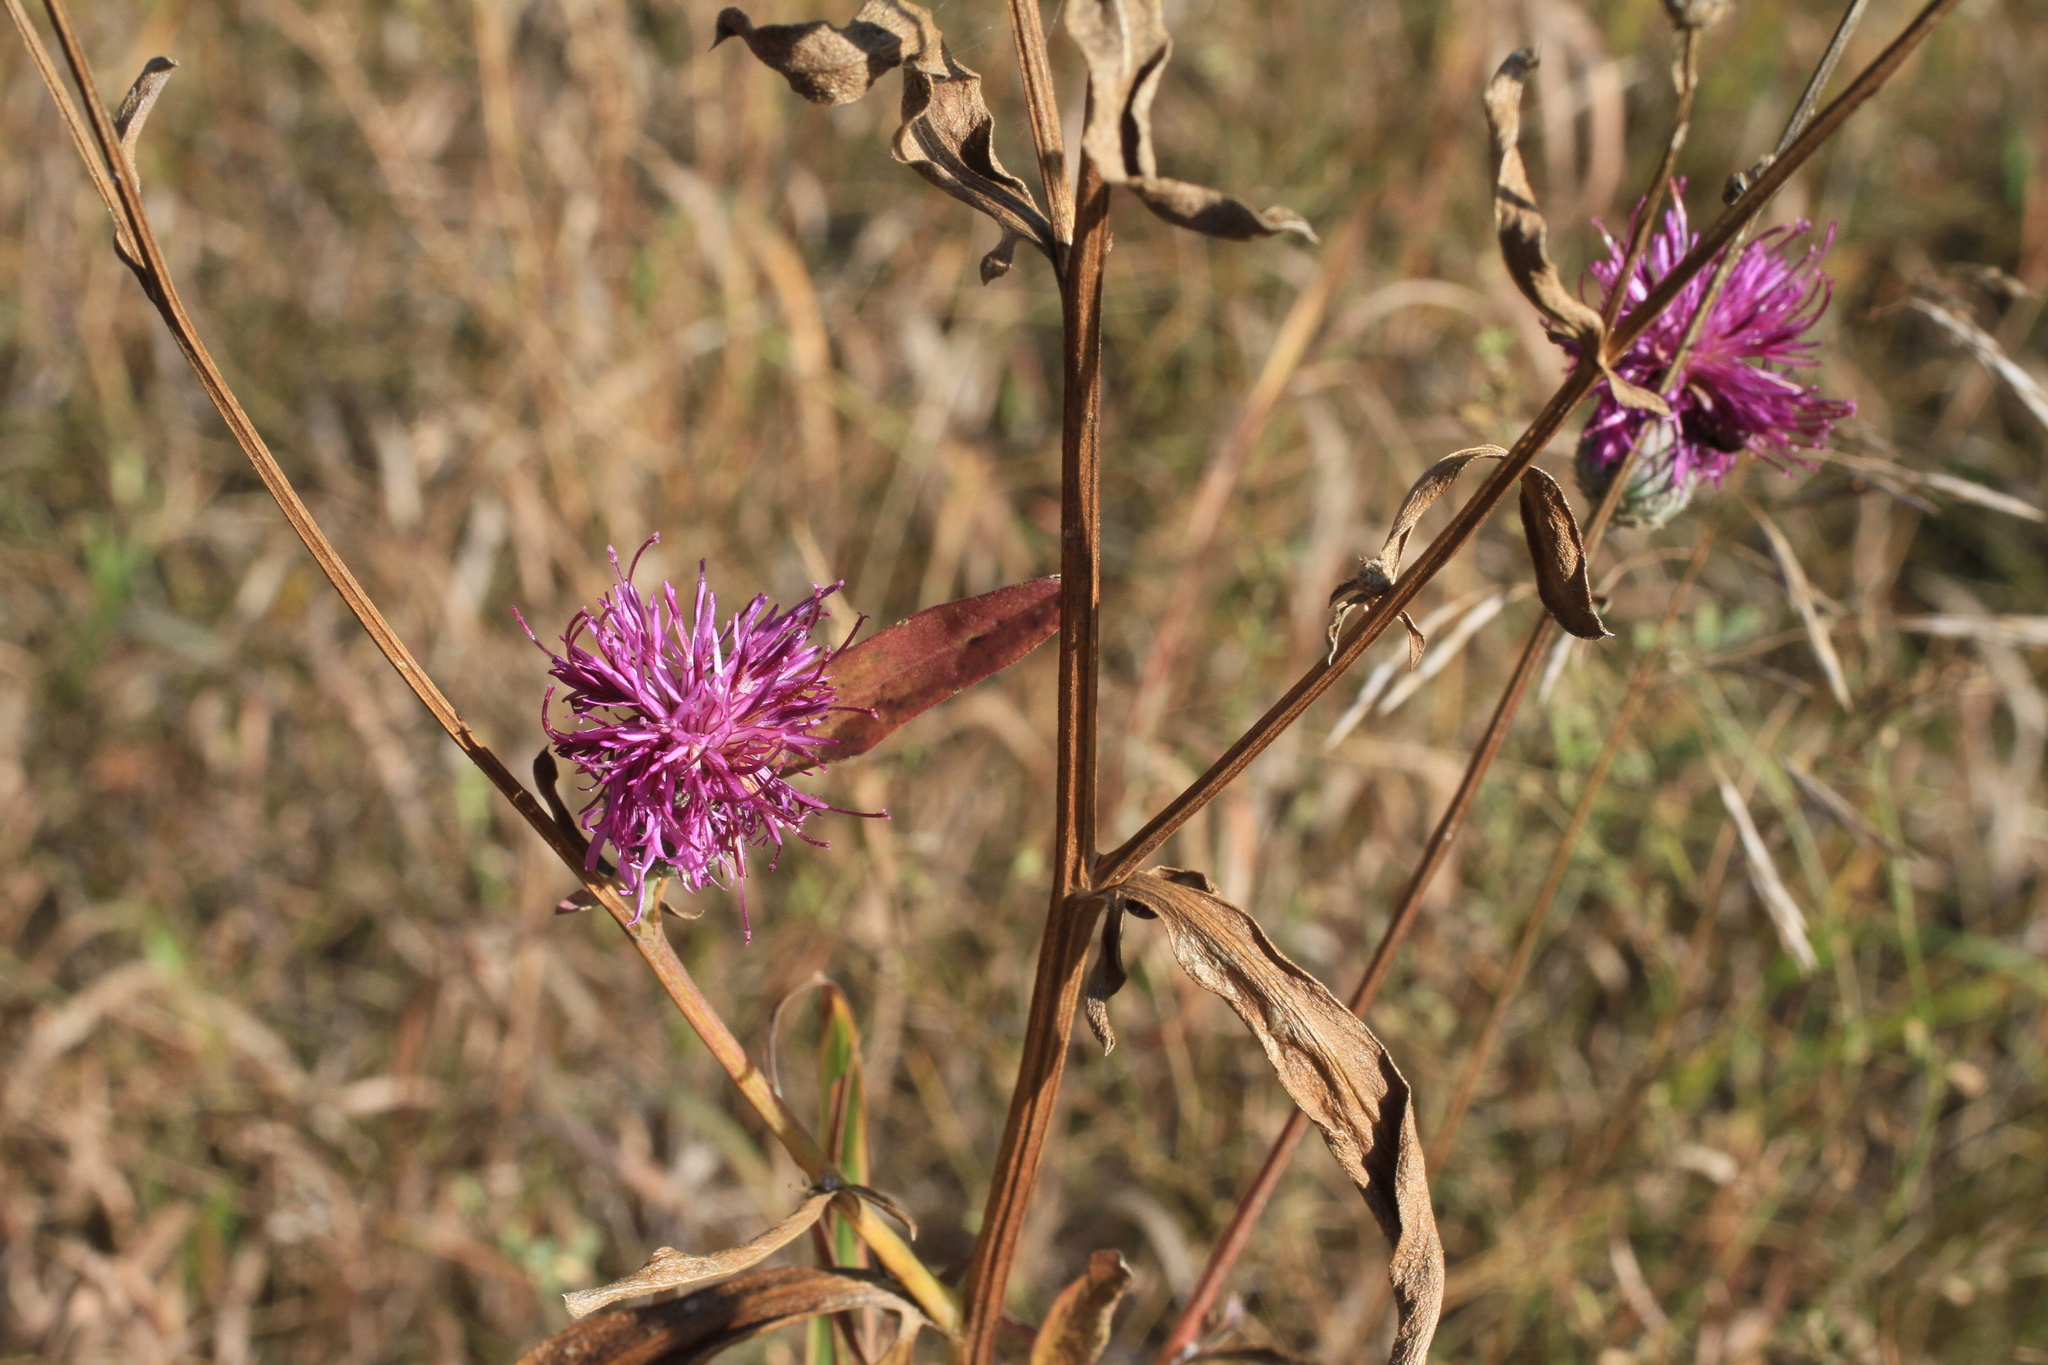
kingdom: Plantae
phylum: Tracheophyta
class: Magnoliopsida
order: Asterales
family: Asteraceae
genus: Centaurea
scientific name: Centaurea scabiosa
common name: Greater knapweed
